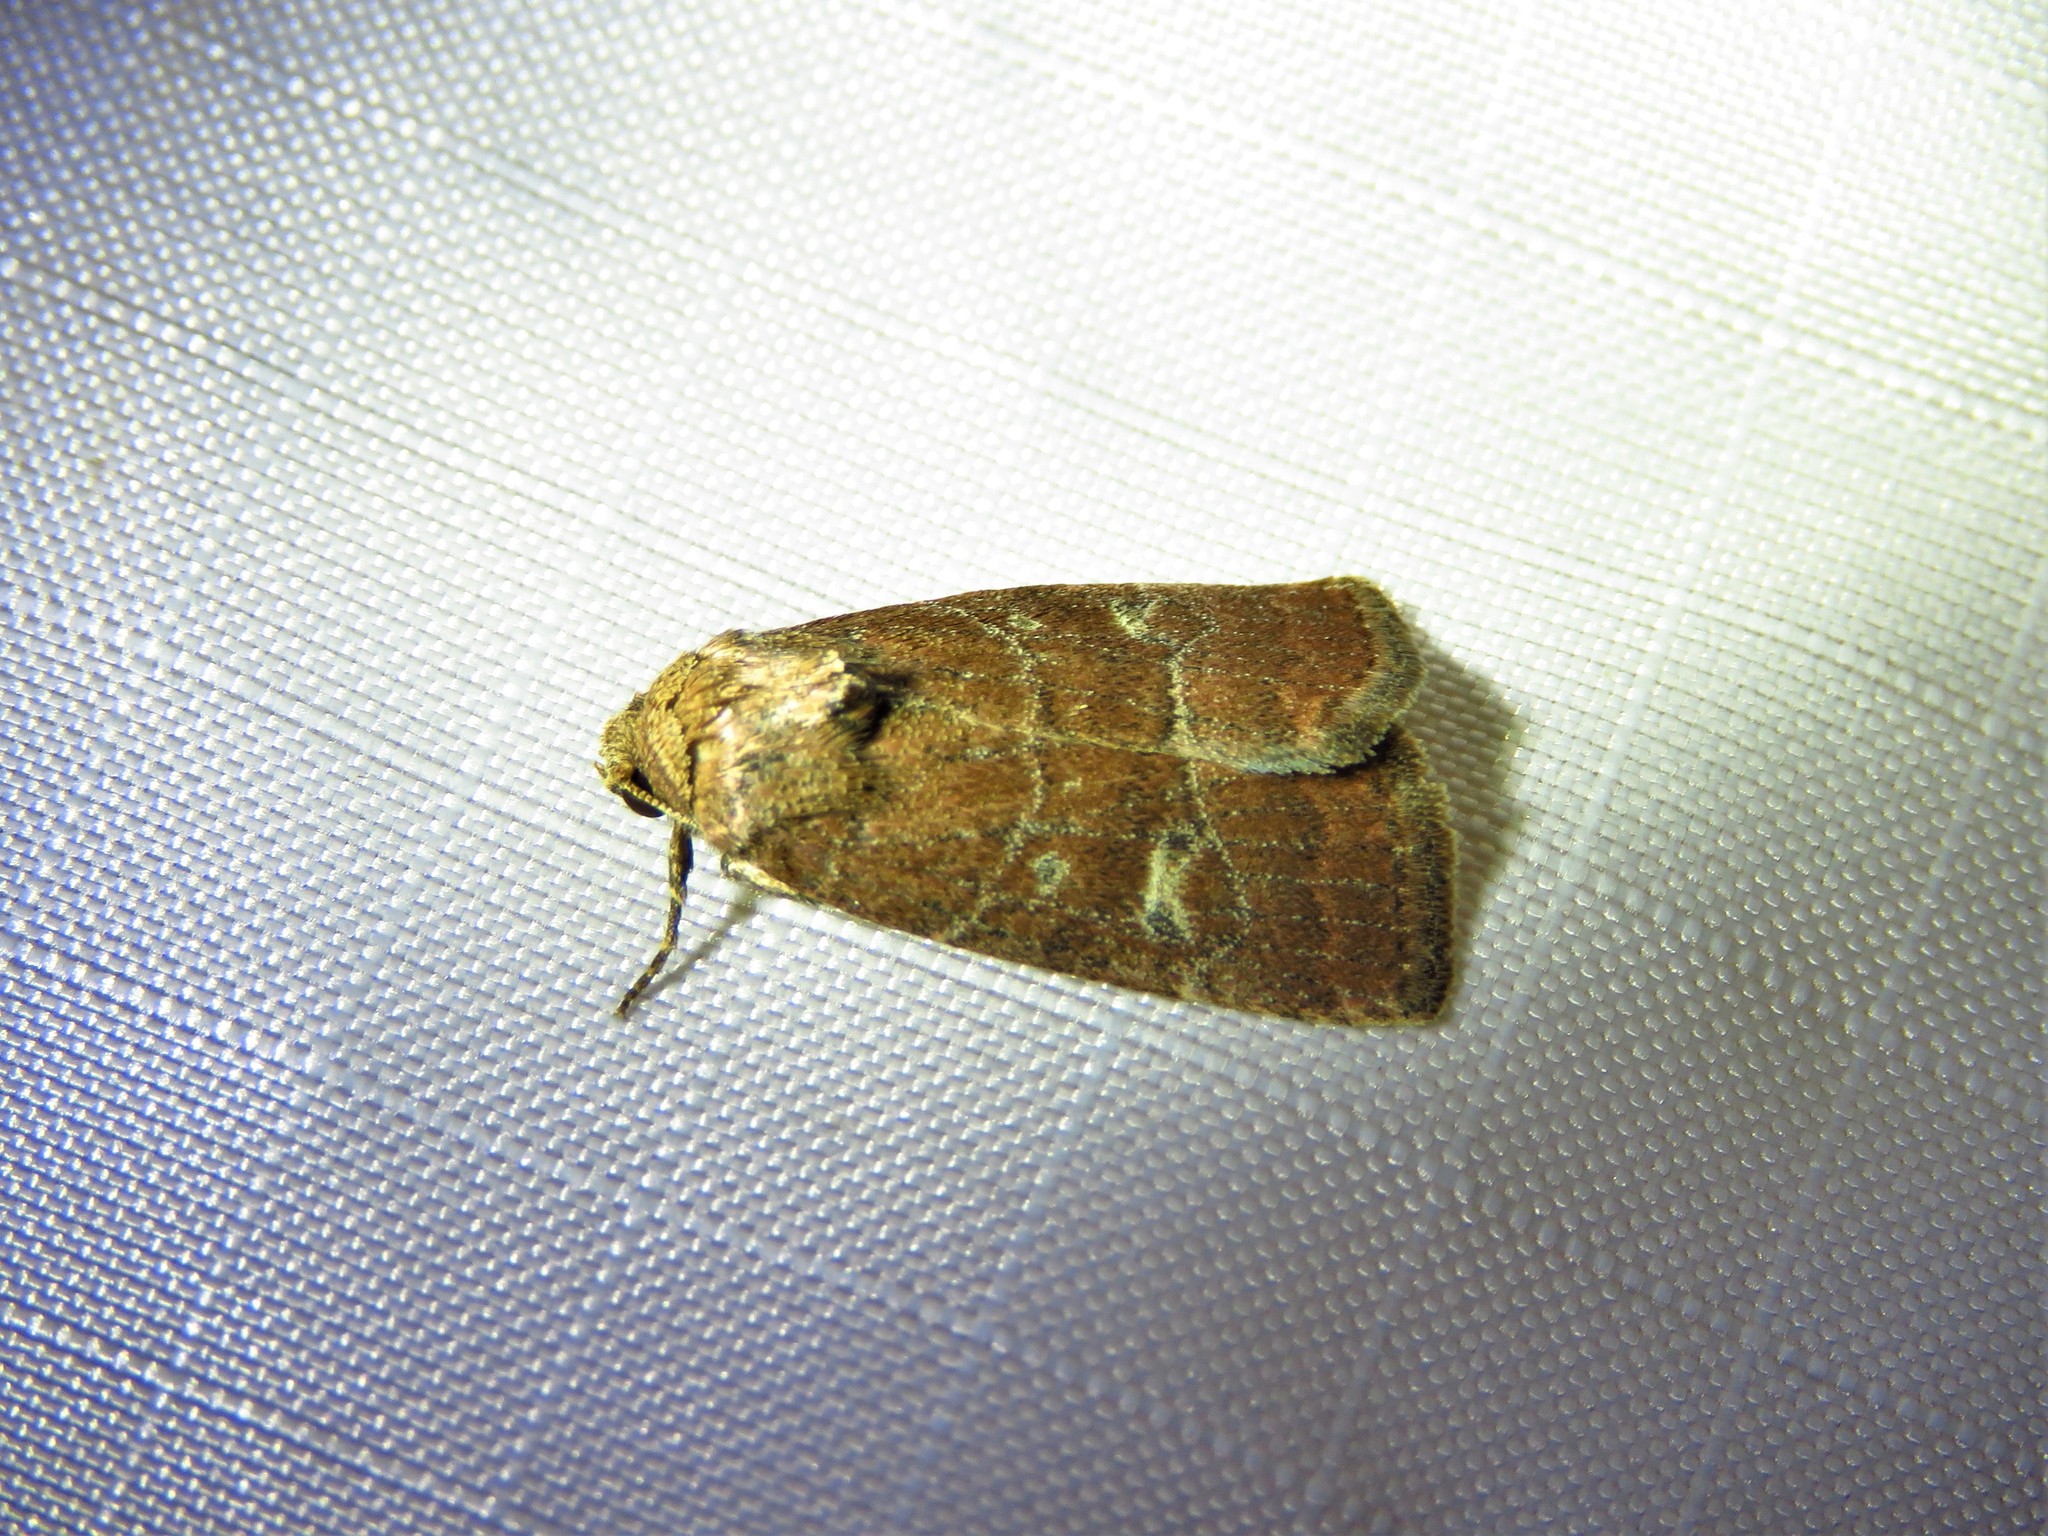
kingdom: Animalia
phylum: Arthropoda
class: Insecta
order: Lepidoptera
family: Noctuidae
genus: Elaphria
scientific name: Elaphria grata
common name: Grateful midget moth
